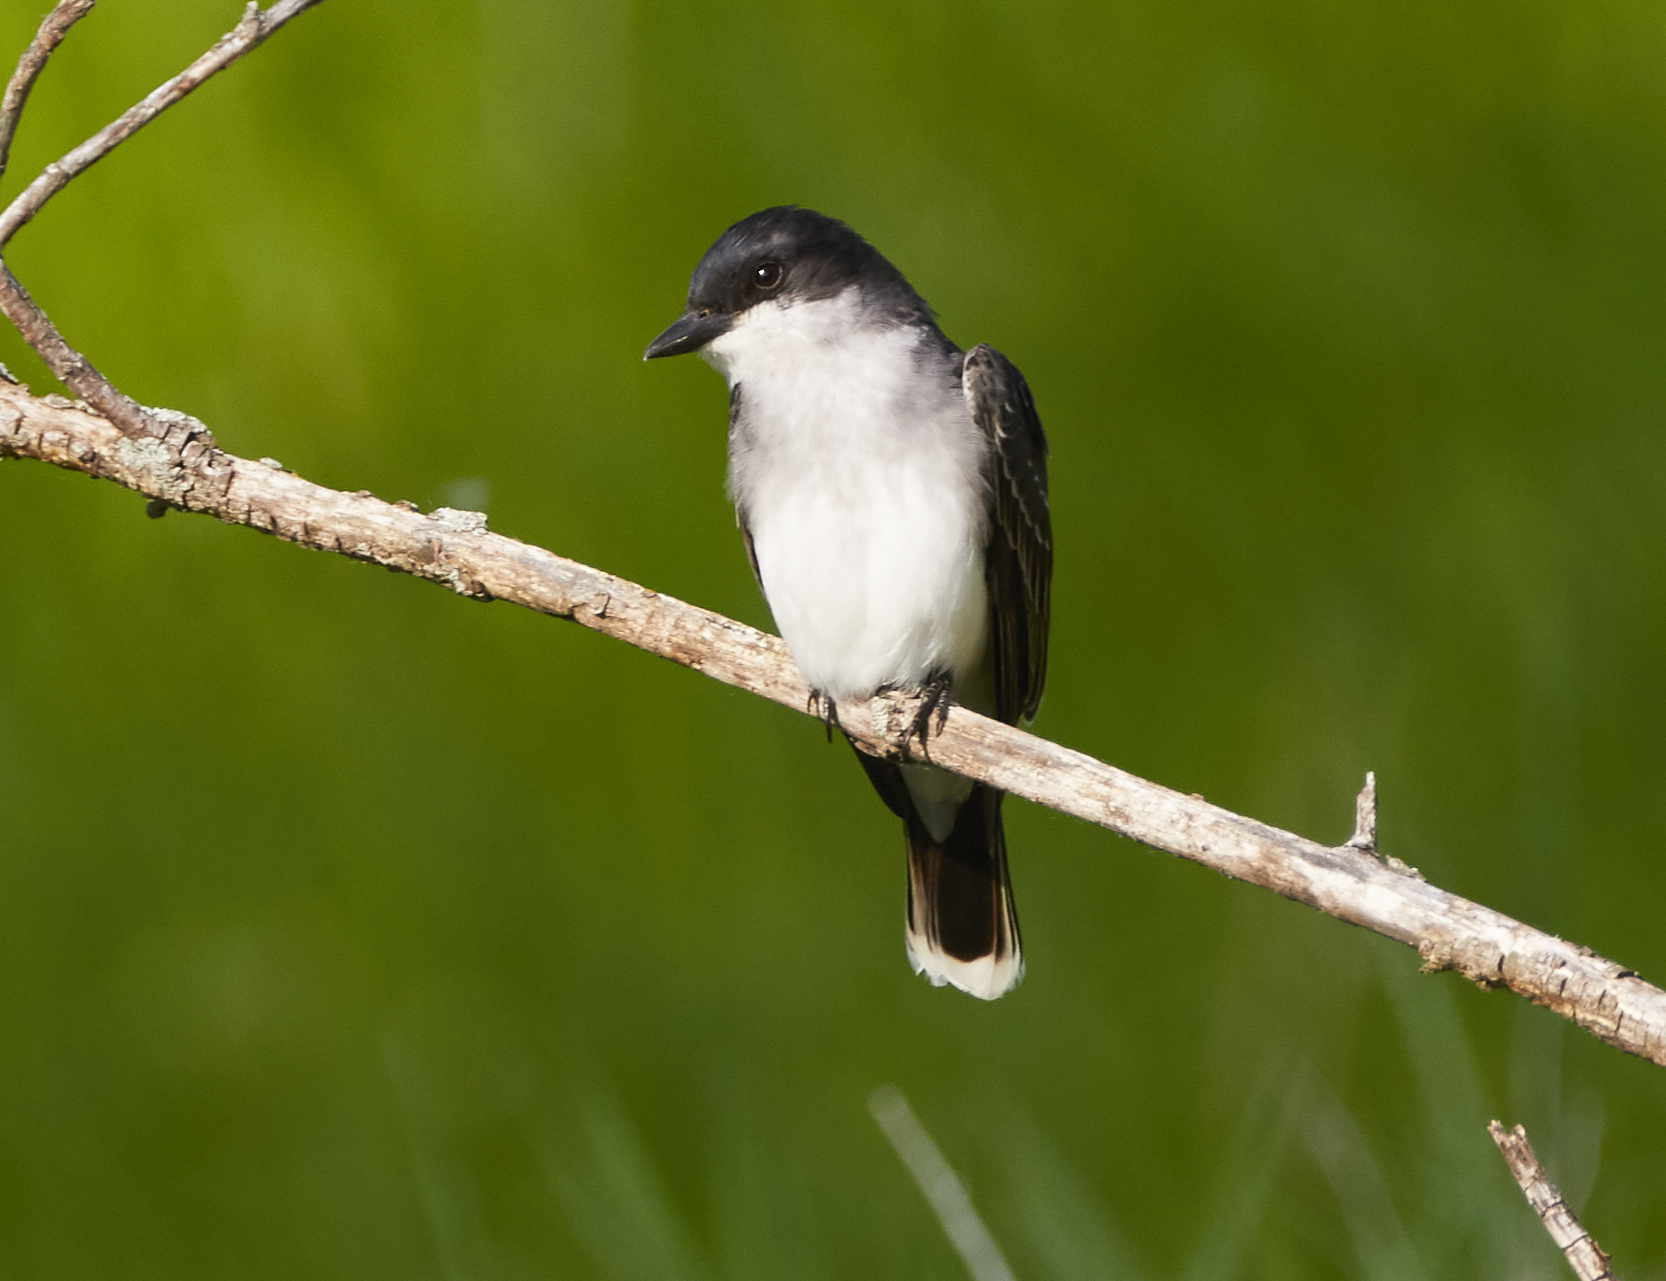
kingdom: Animalia
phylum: Chordata
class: Aves
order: Passeriformes
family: Tyrannidae
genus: Tyrannus
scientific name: Tyrannus tyrannus
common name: Eastern kingbird
